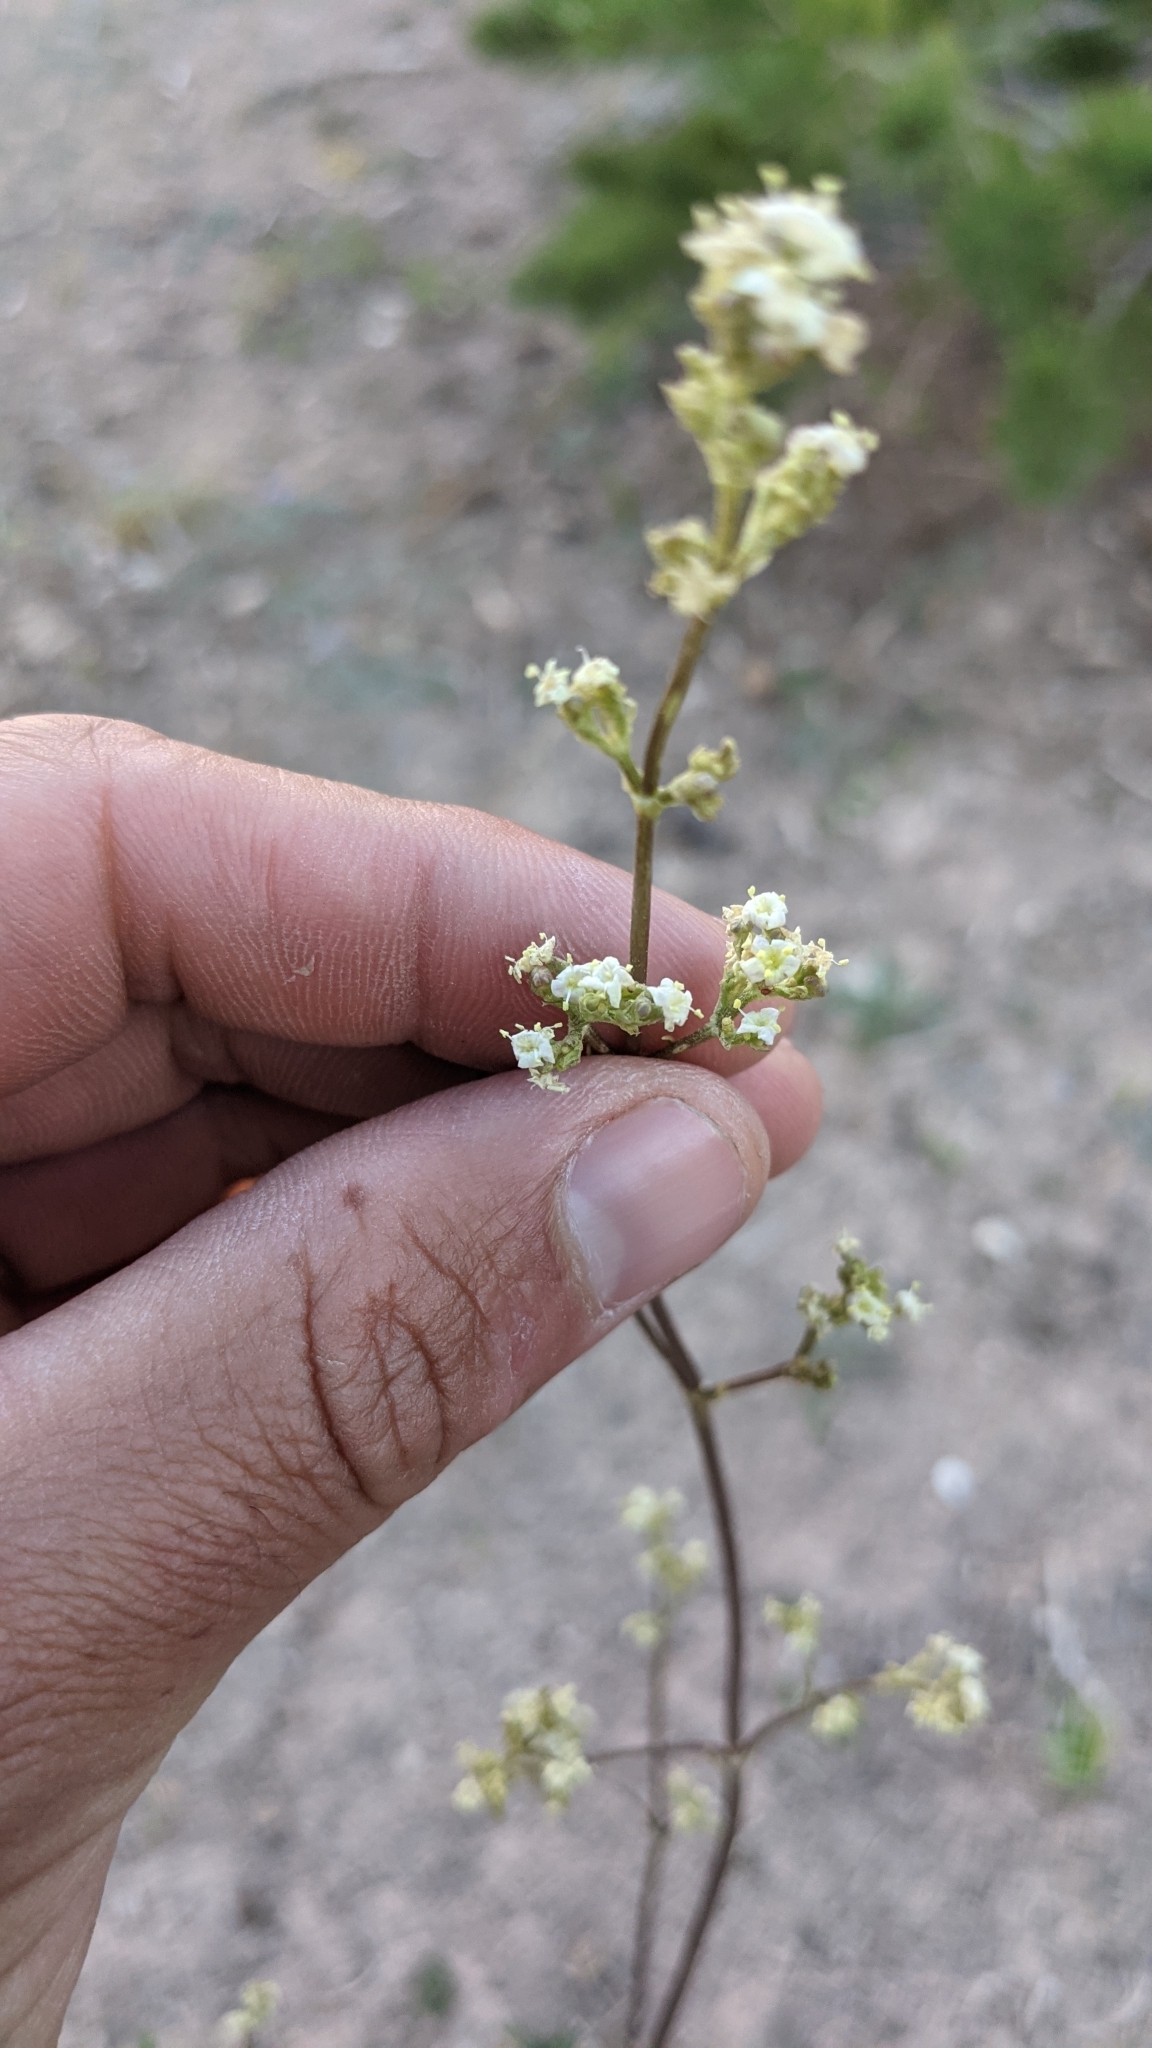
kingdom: Plantae
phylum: Tracheophyta
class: Magnoliopsida
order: Dipsacales
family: Caprifoliaceae
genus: Valeriana
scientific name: Valeriana edulis
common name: Taproot valerian
